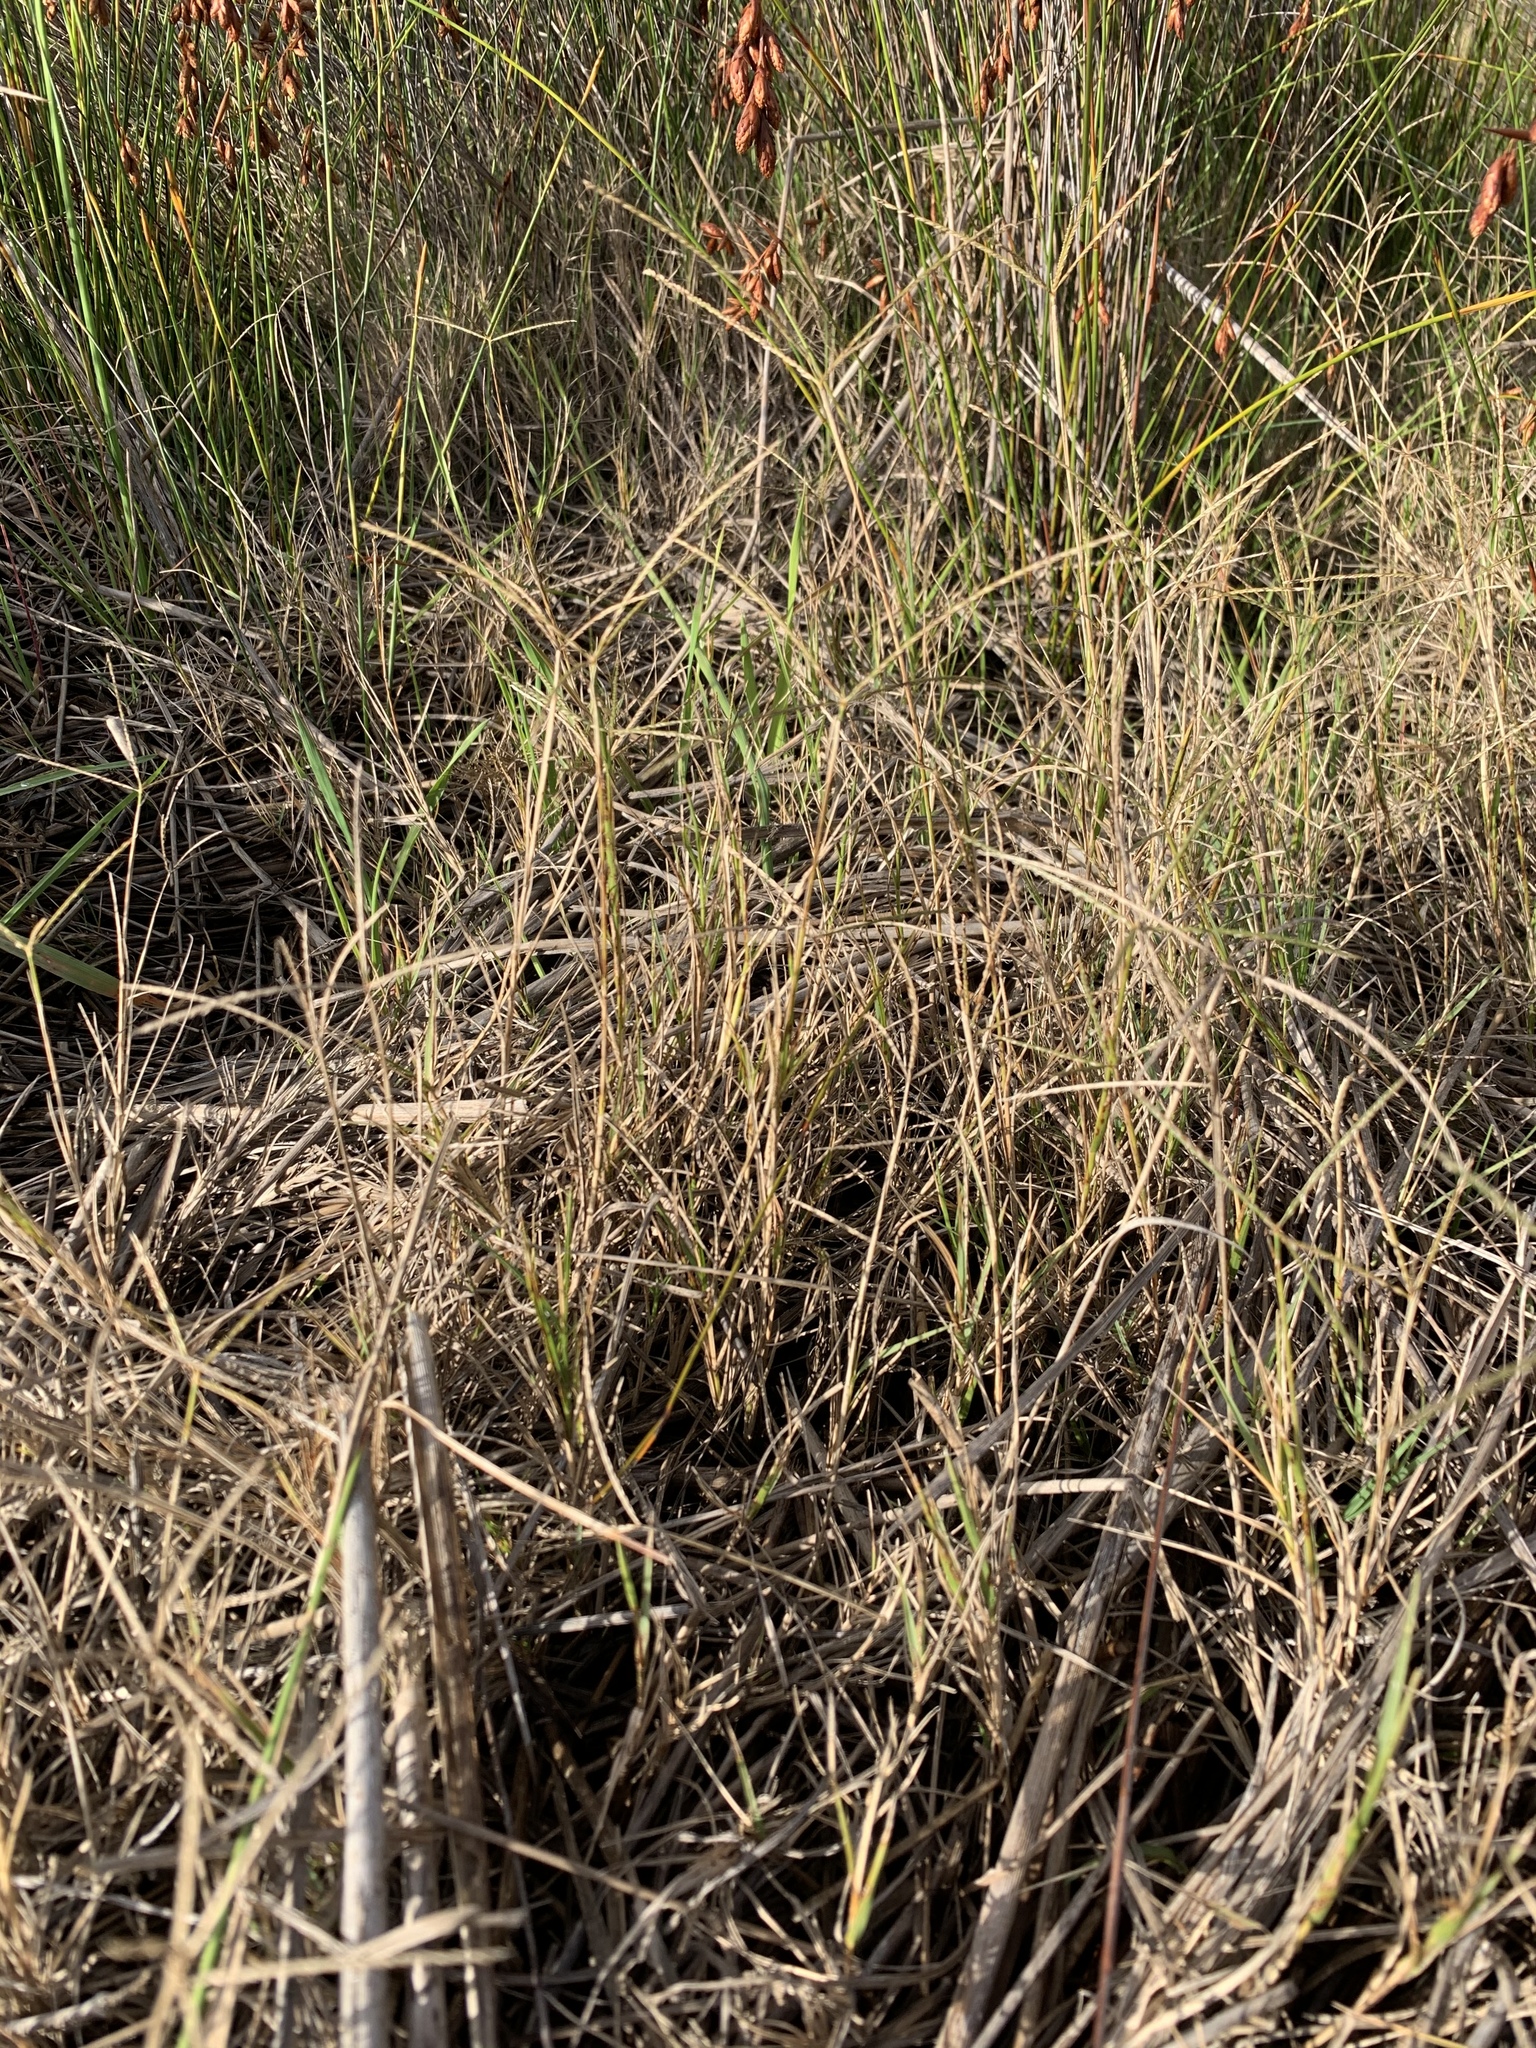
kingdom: Plantae
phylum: Tracheophyta
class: Liliopsida
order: Poales
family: Poaceae
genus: Cynodon
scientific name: Cynodon dactylon
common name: Bermuda grass
